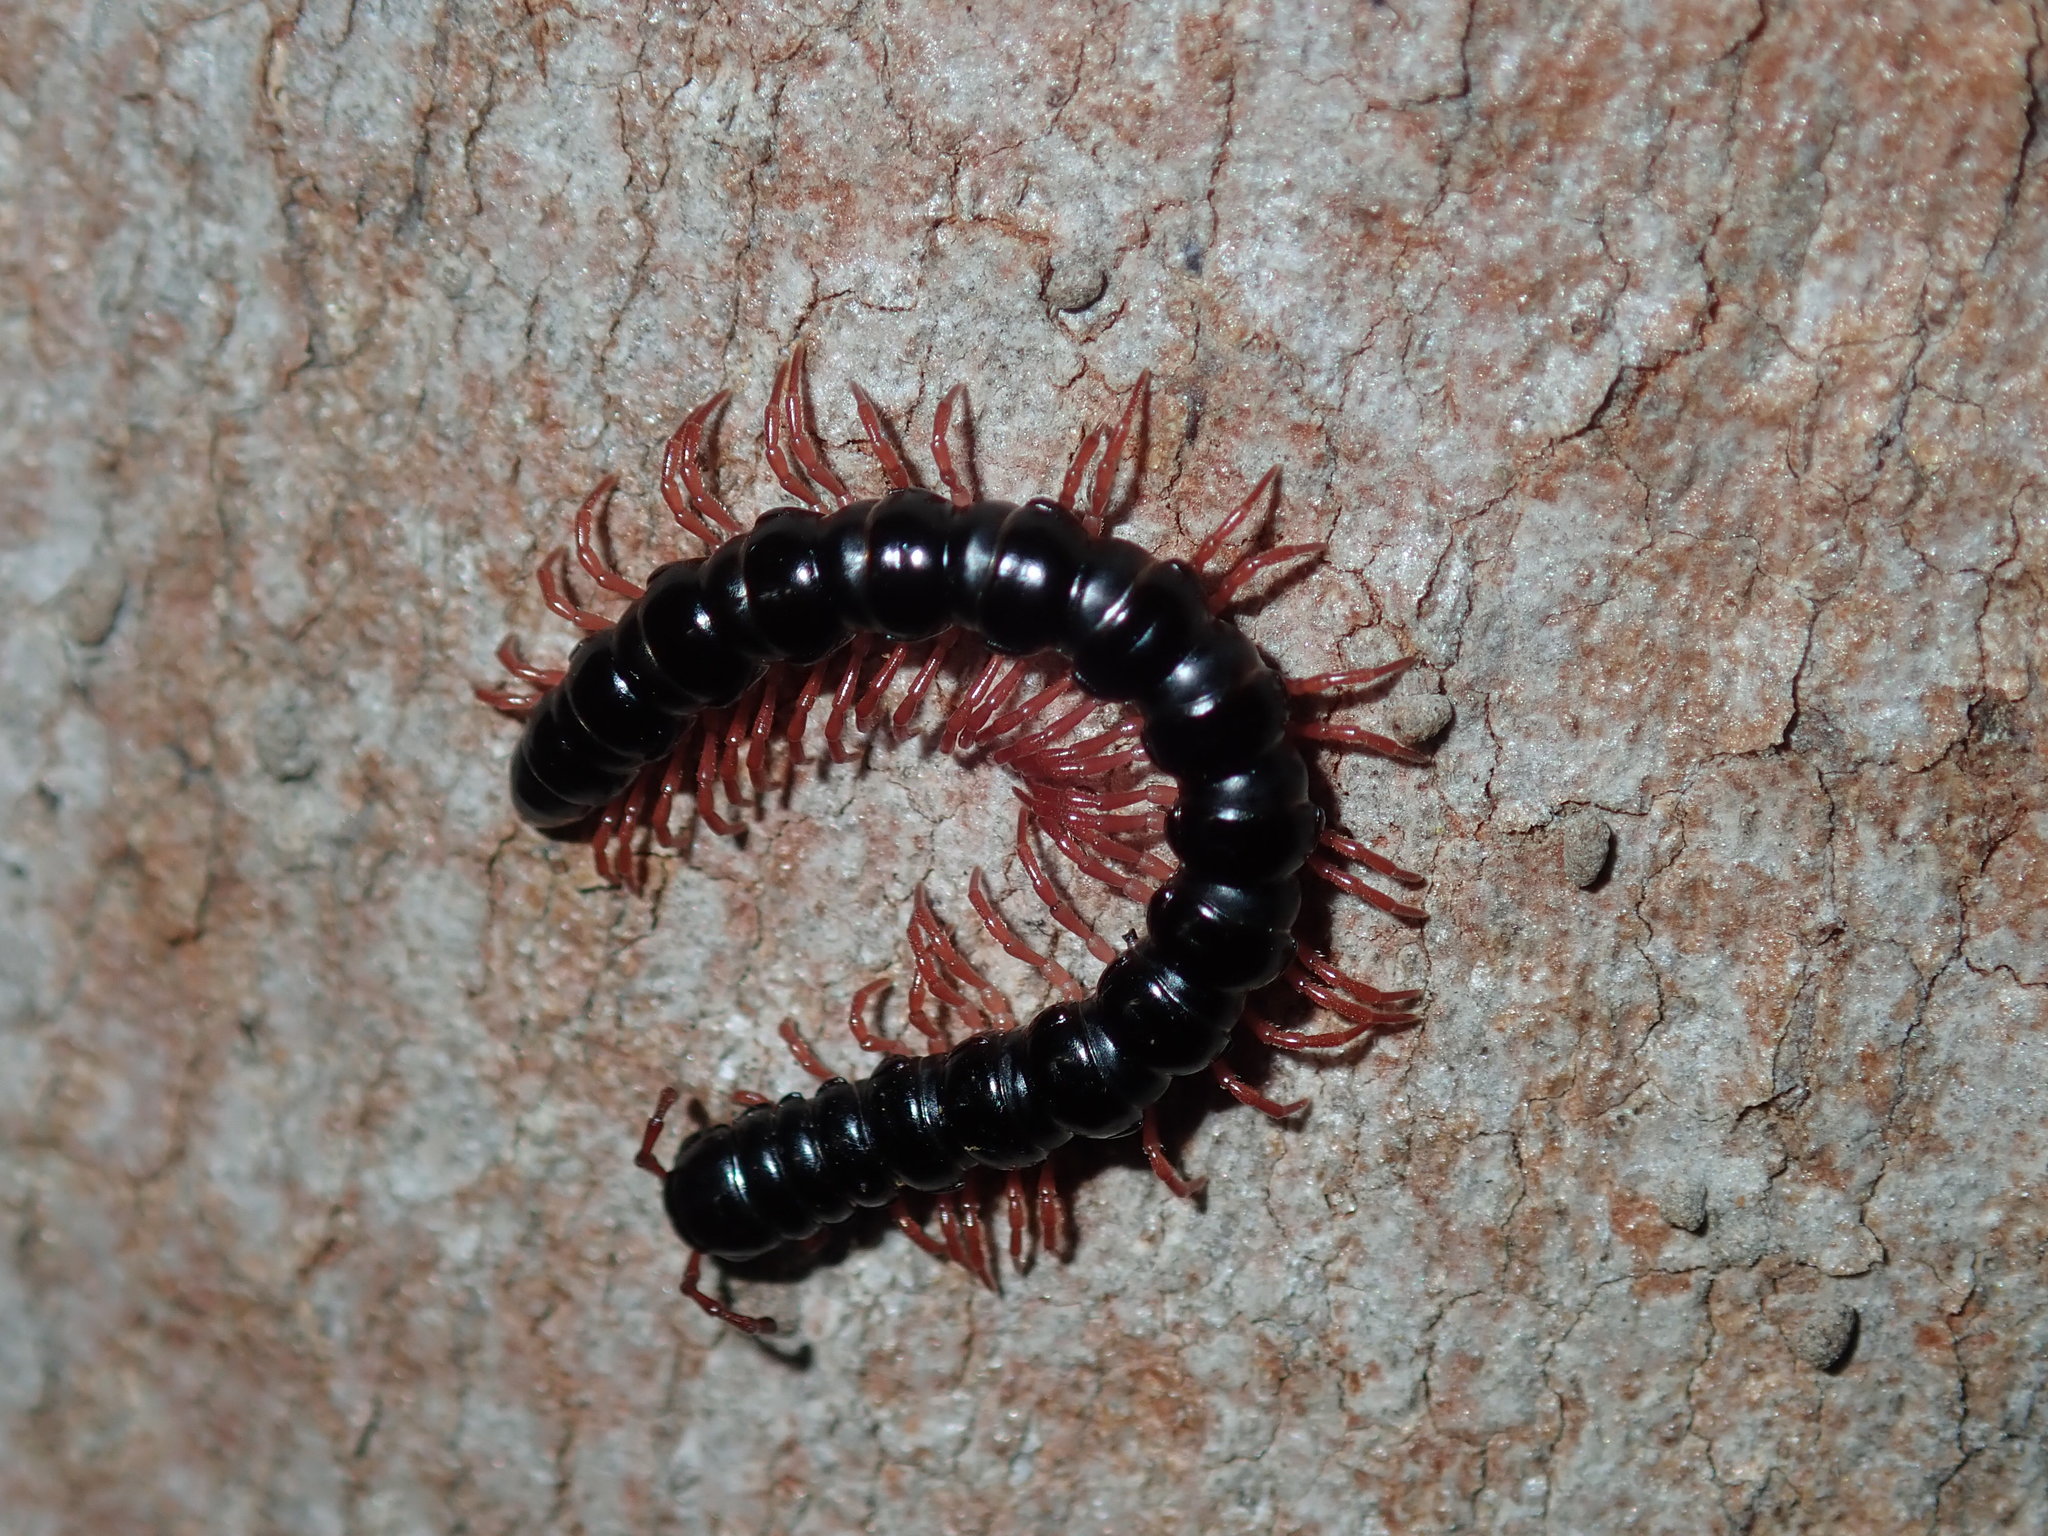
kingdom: Animalia
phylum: Arthropoda
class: Diplopoda
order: Polydesmida
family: Paradoxosomatidae
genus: Heterocladosoma
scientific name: Heterocladosoma
